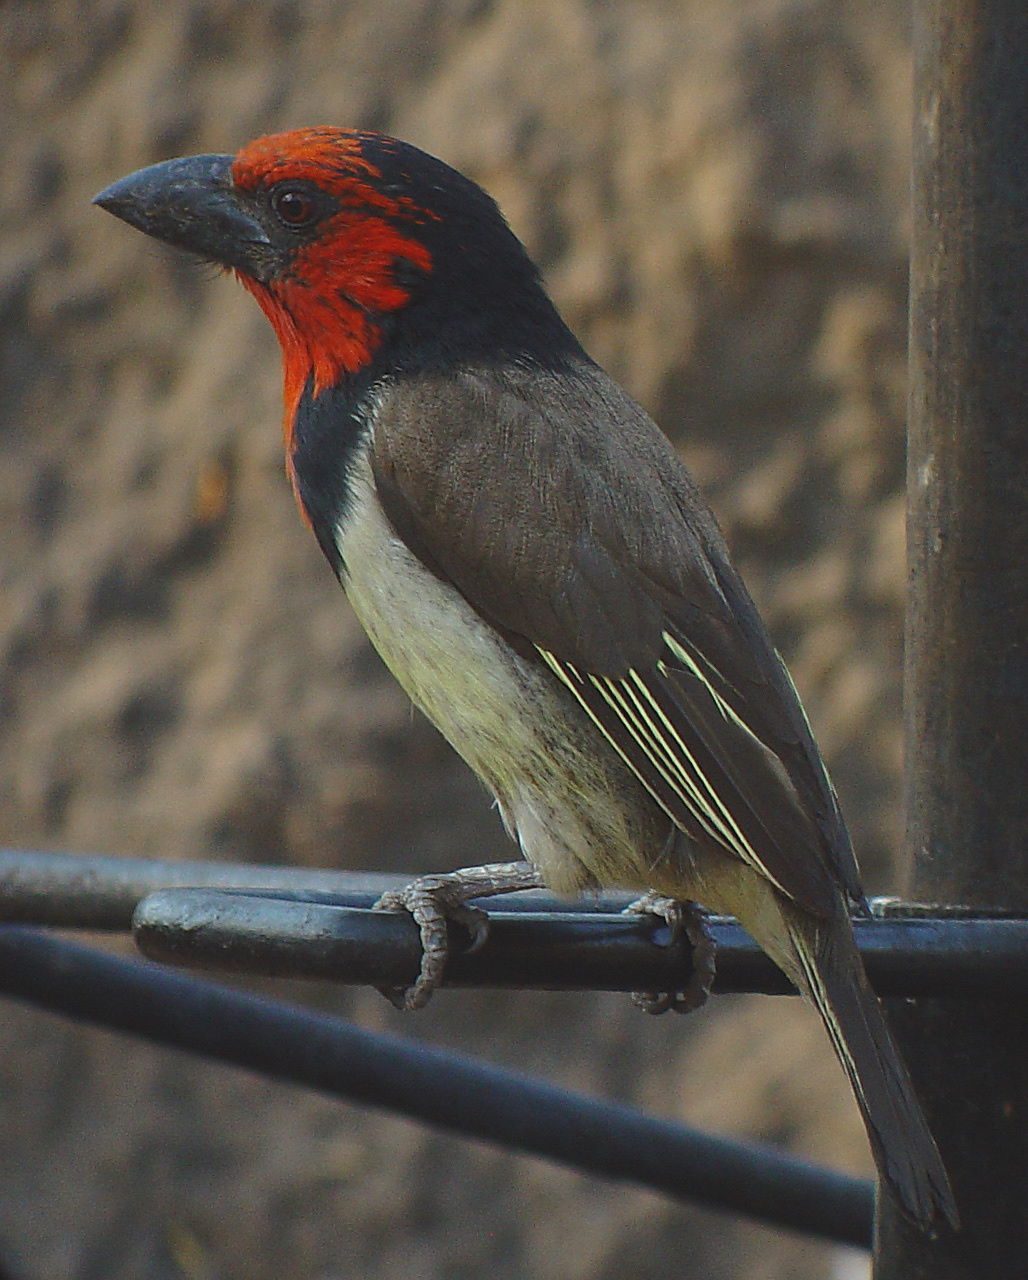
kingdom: Animalia
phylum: Chordata
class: Aves
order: Piciformes
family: Lybiidae
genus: Lybius
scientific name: Lybius torquatus
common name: Black-collared barbet
